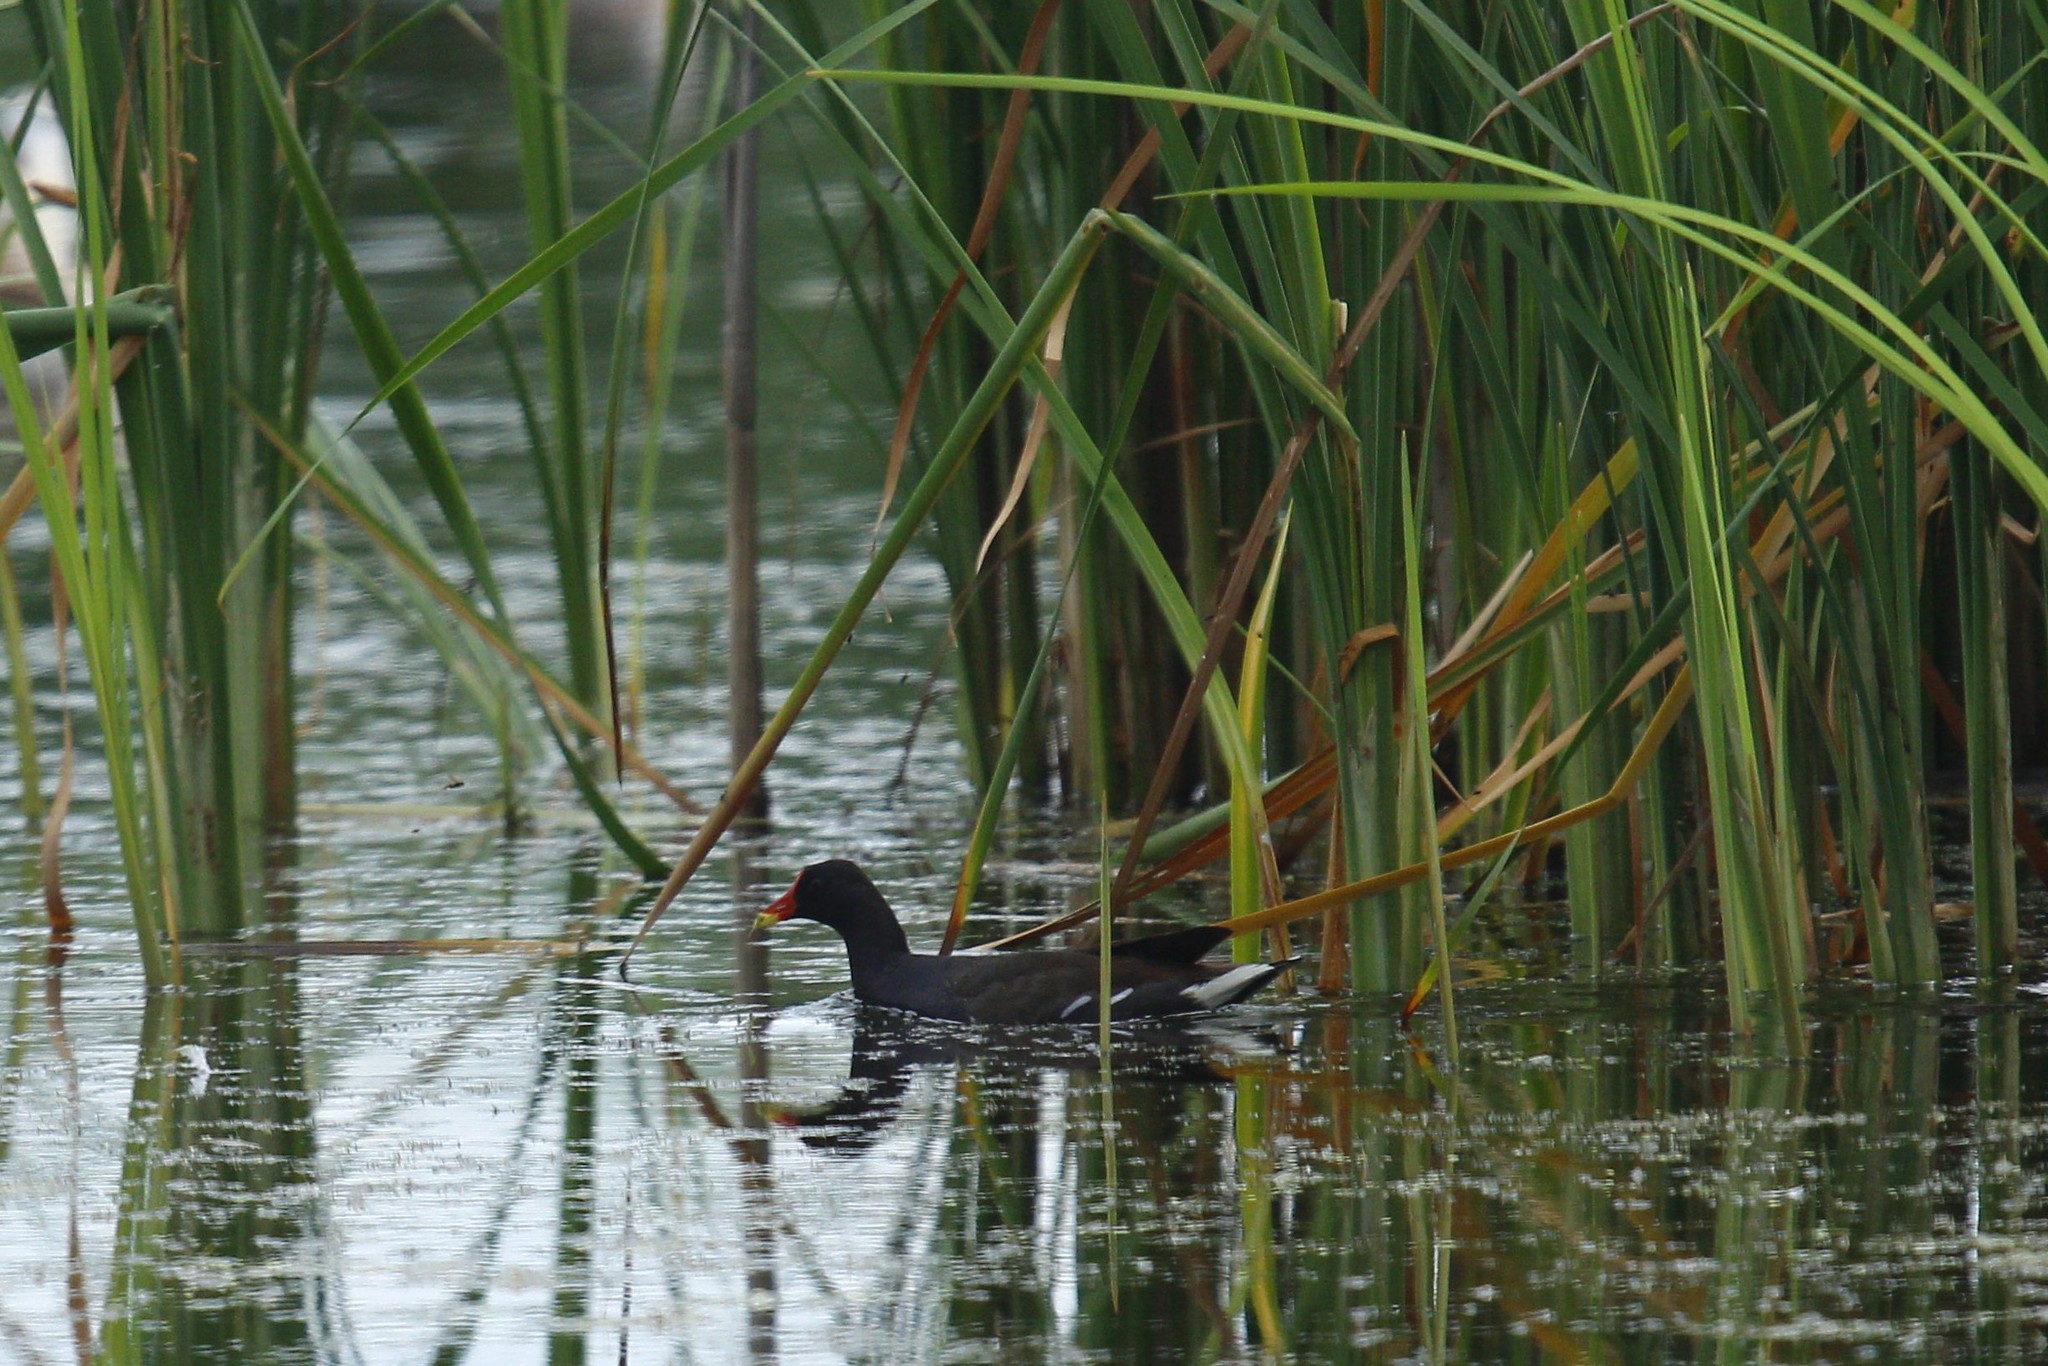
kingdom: Animalia
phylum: Chordata
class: Aves
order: Gruiformes
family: Rallidae
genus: Gallinula
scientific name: Gallinula chloropus
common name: Common moorhen
